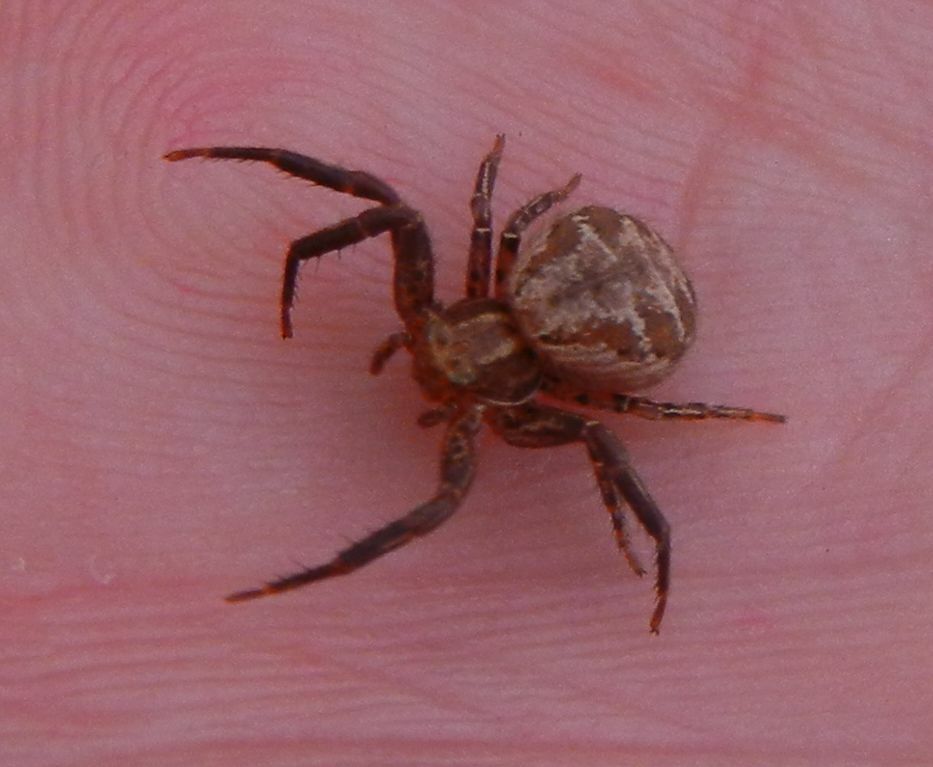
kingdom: Animalia
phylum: Arthropoda
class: Arachnida
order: Araneae
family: Thomisidae
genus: Xysticus
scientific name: Xysticus
